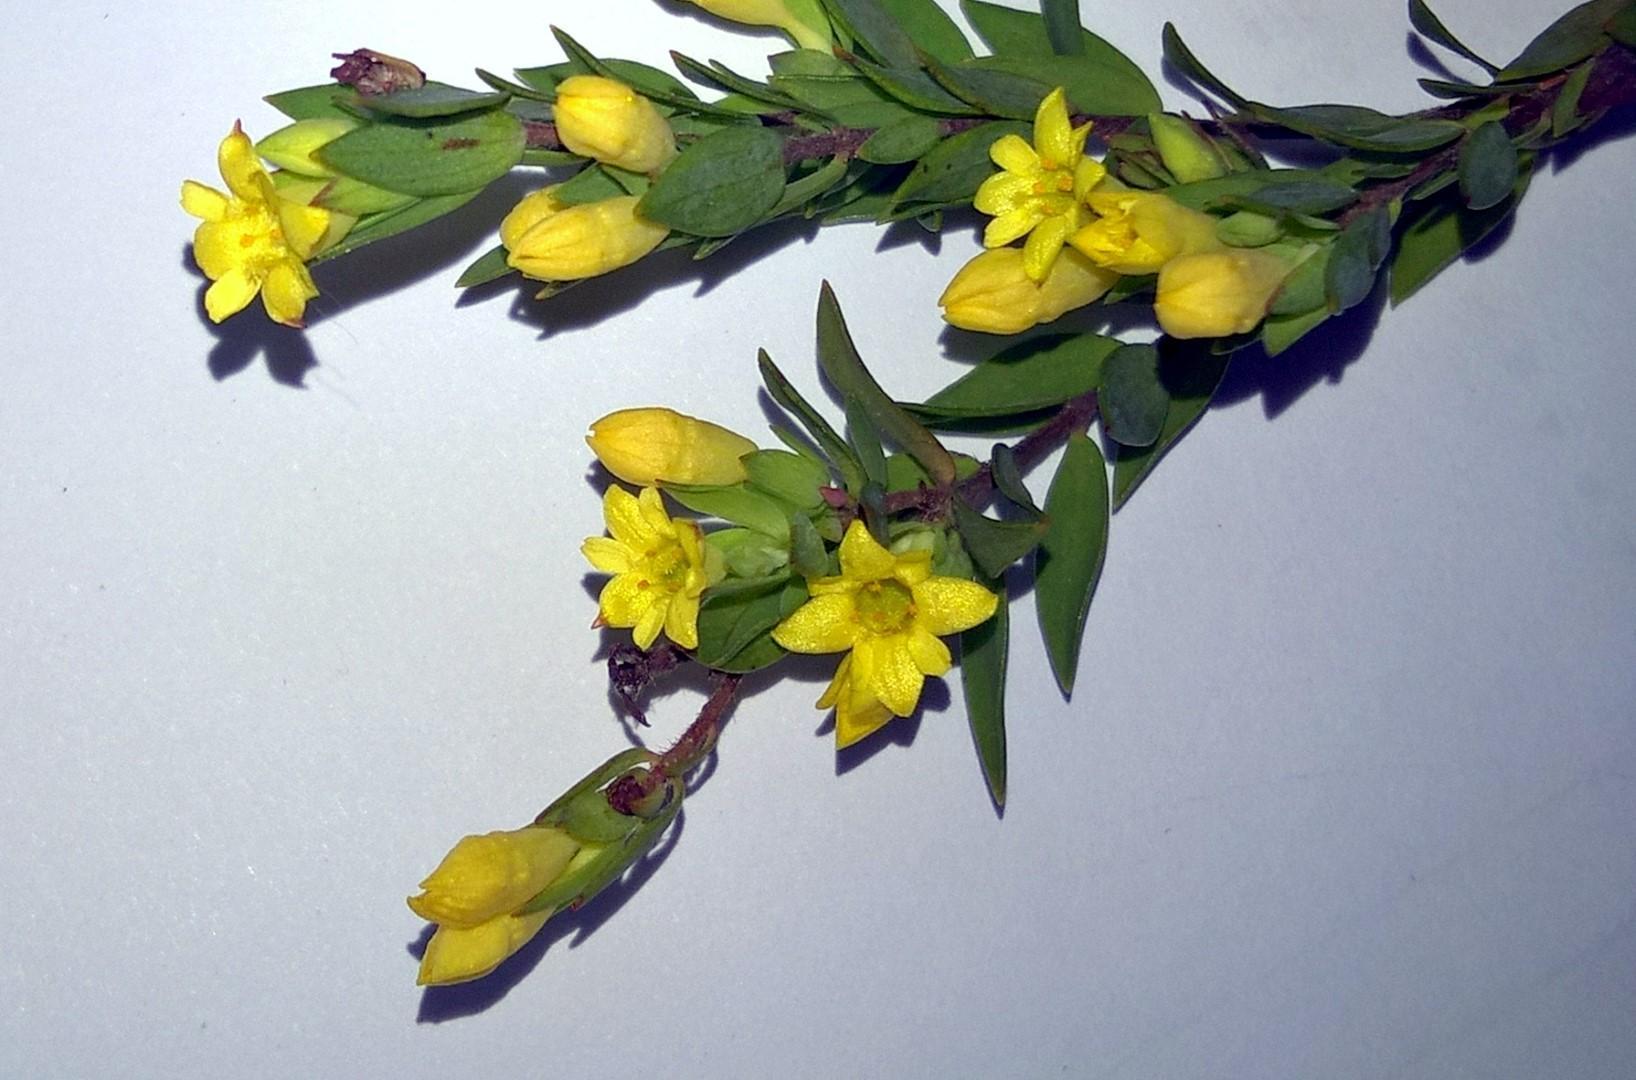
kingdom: Plantae
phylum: Tracheophyta
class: Magnoliopsida
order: Malvales
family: Thymelaeaceae
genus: Gnidia
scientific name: Gnidia juniperifolia
